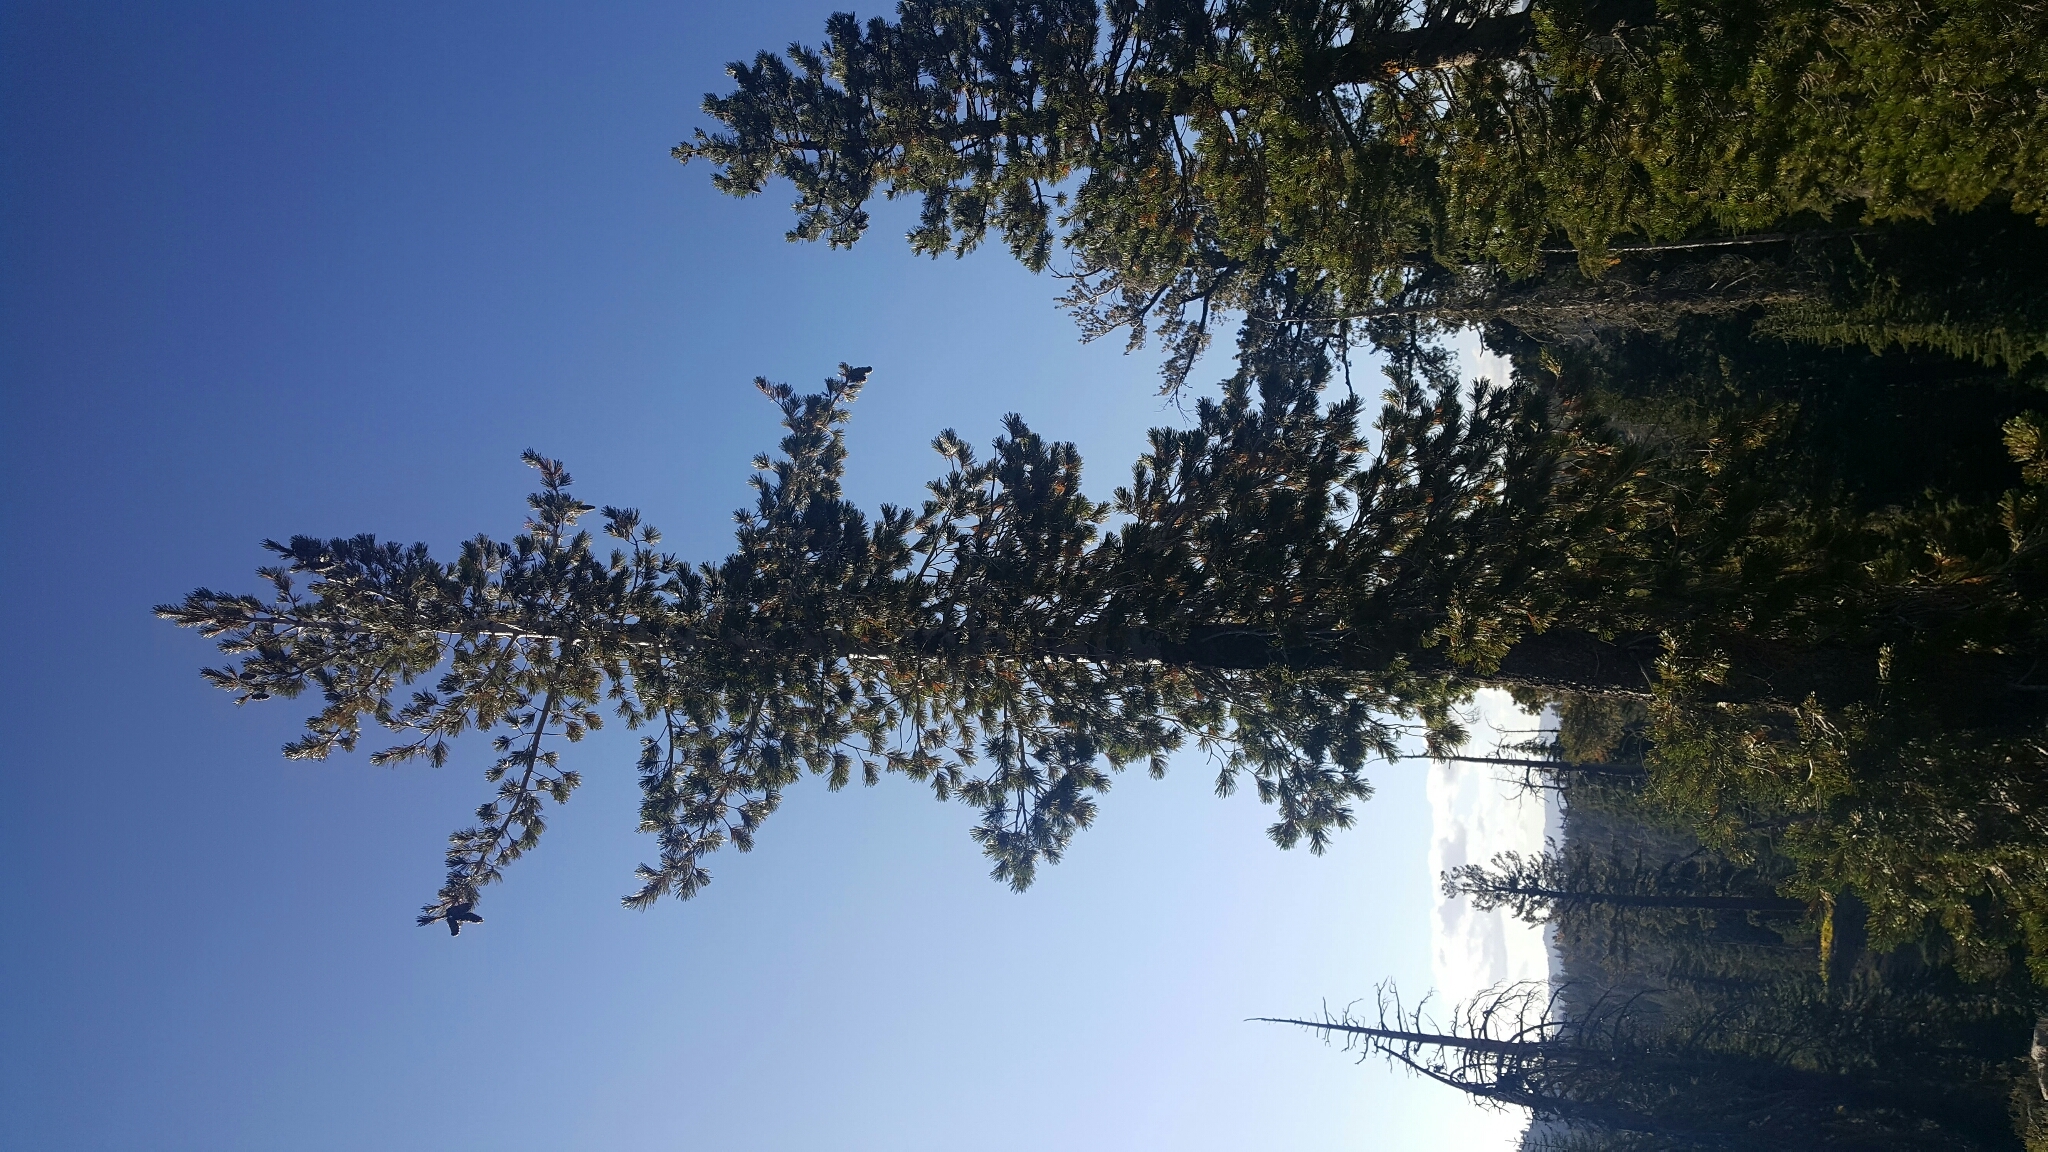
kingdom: Plantae
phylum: Tracheophyta
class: Pinopsida
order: Pinales
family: Pinaceae
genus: Pinus
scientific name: Pinus monticola
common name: Western white pine
